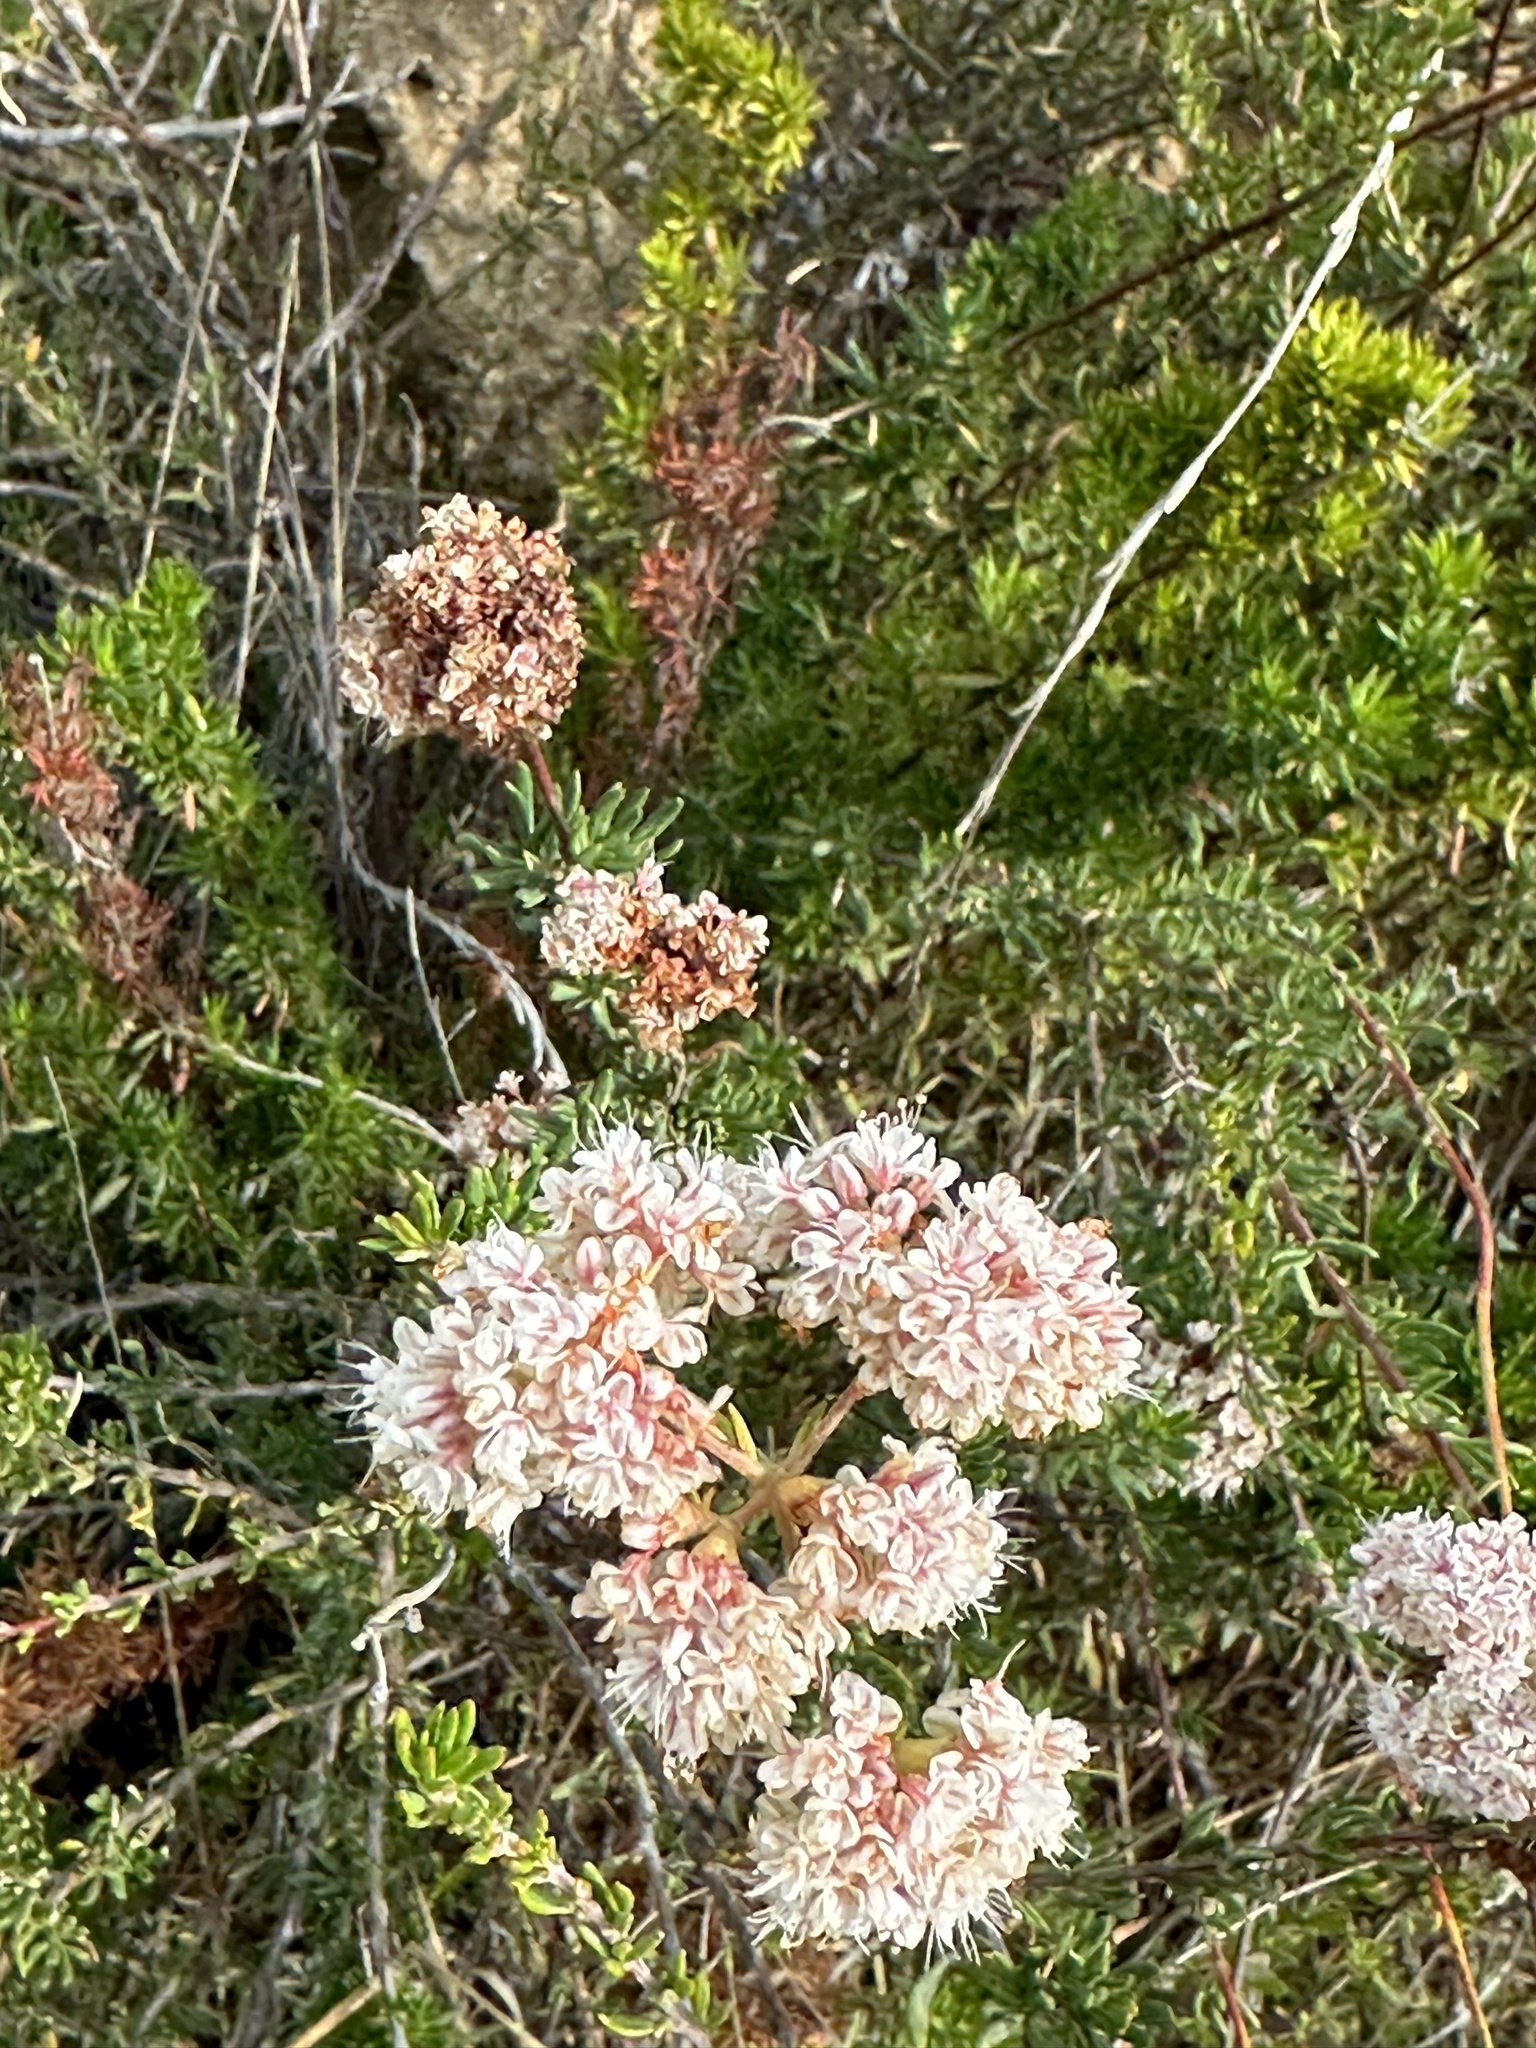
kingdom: Plantae
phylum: Tracheophyta
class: Magnoliopsida
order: Caryophyllales
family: Polygonaceae
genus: Eriogonum
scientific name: Eriogonum fasciculatum
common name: California wild buckwheat
